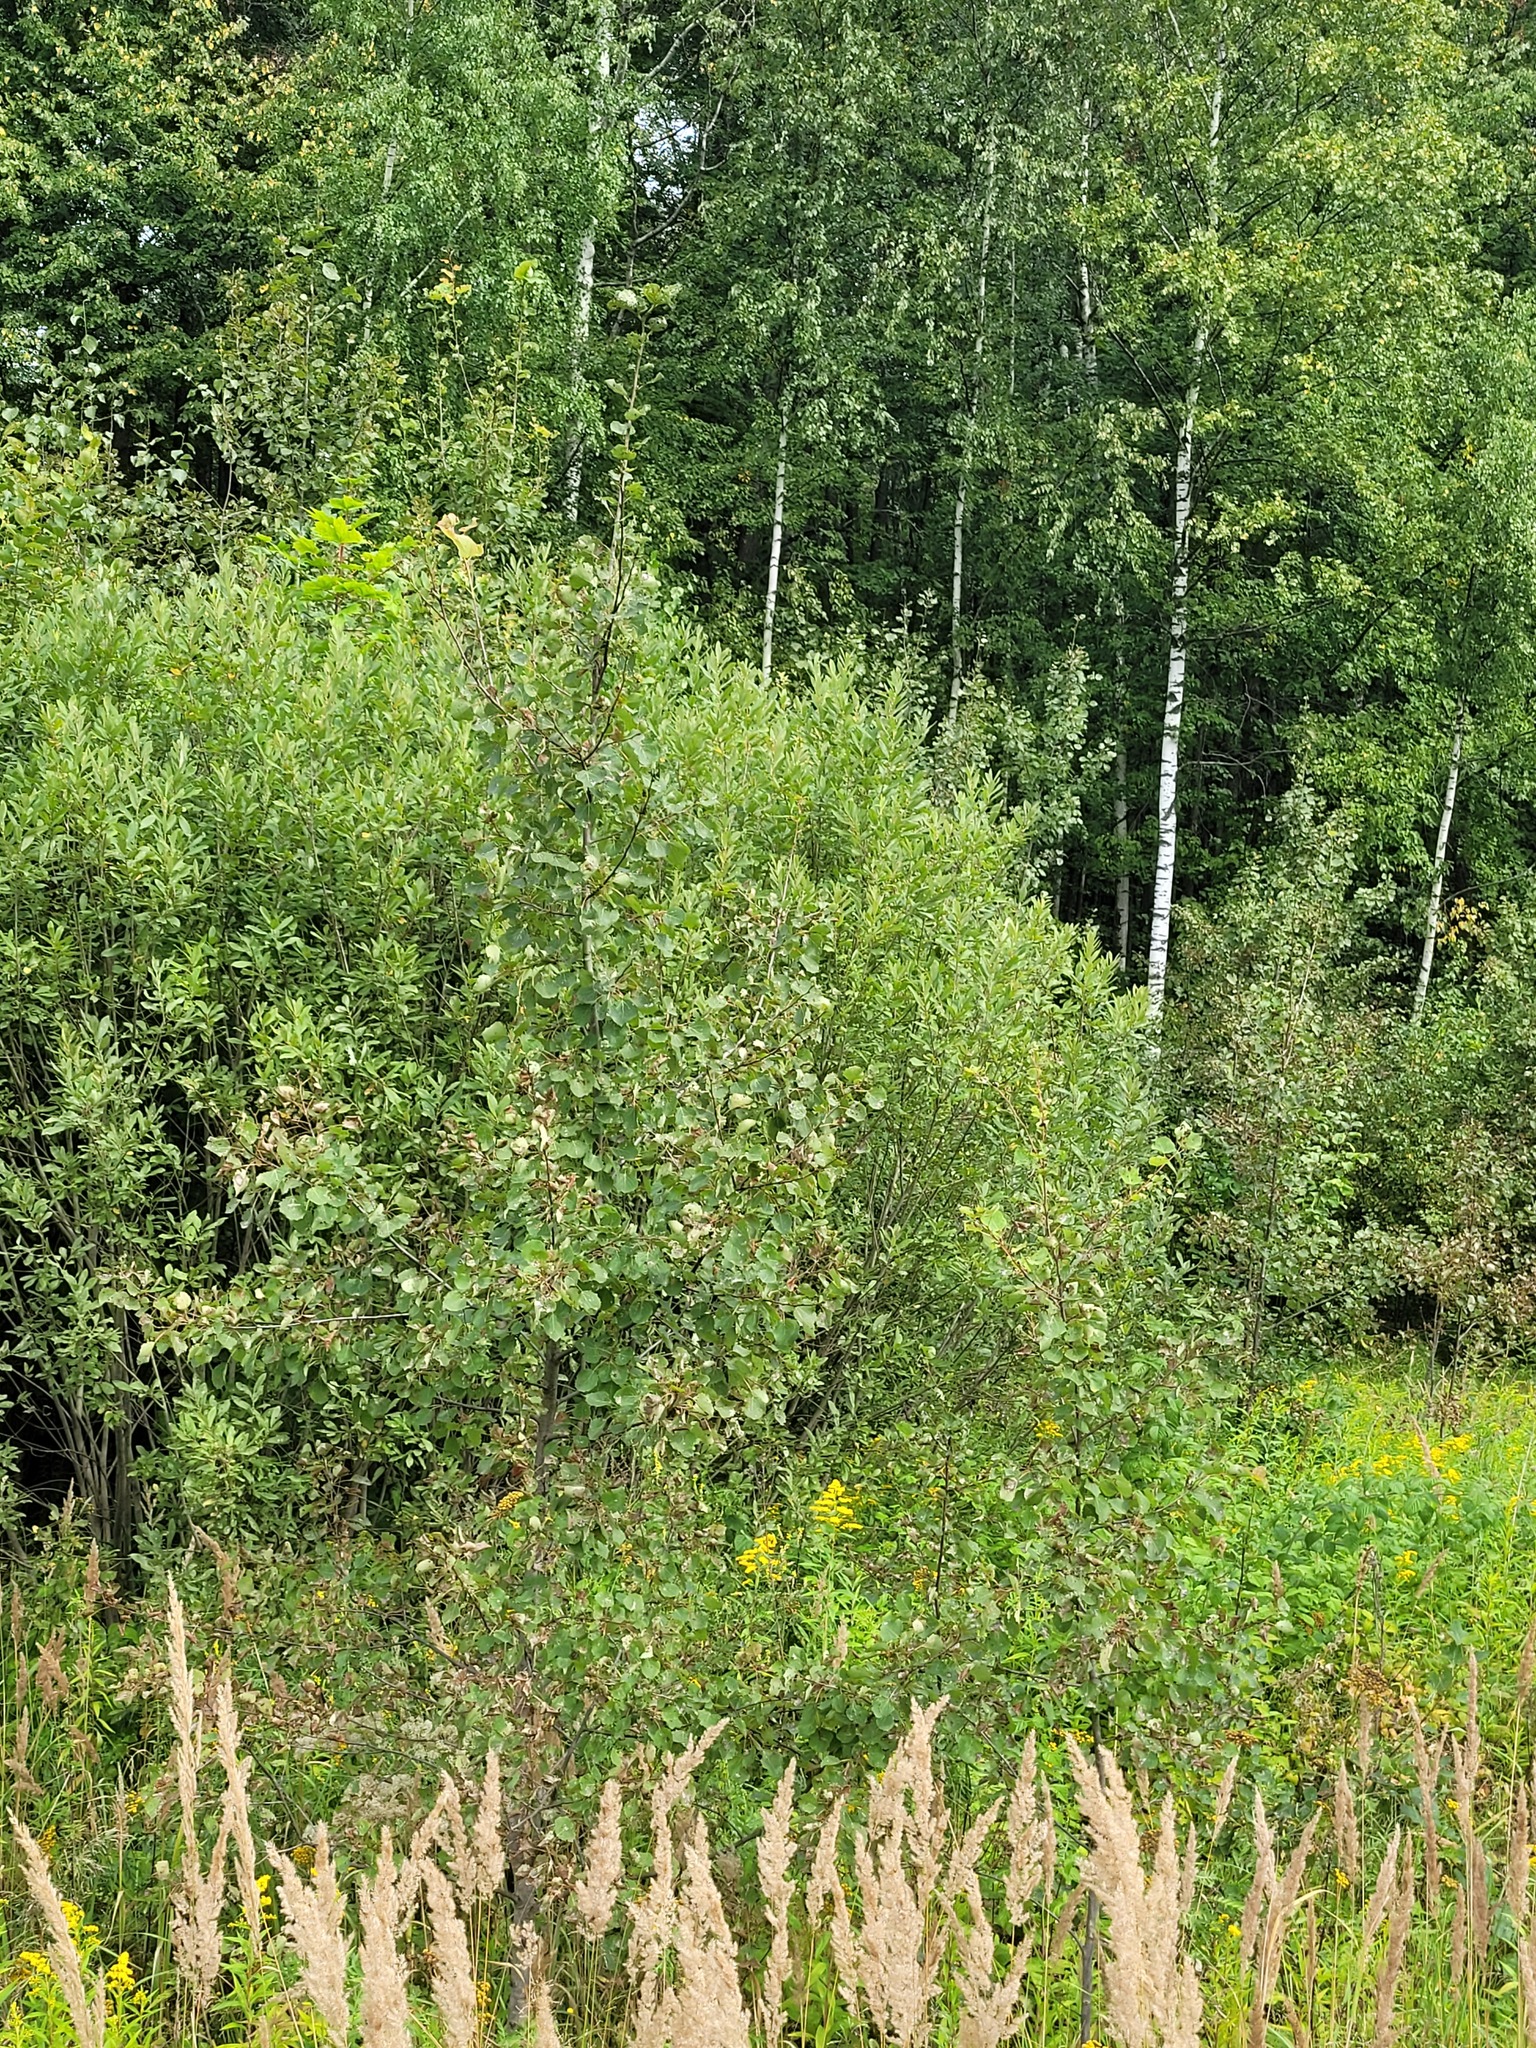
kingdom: Plantae
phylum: Tracheophyta
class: Magnoliopsida
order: Malpighiales
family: Salicaceae
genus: Populus
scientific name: Populus tremula
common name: European aspen
